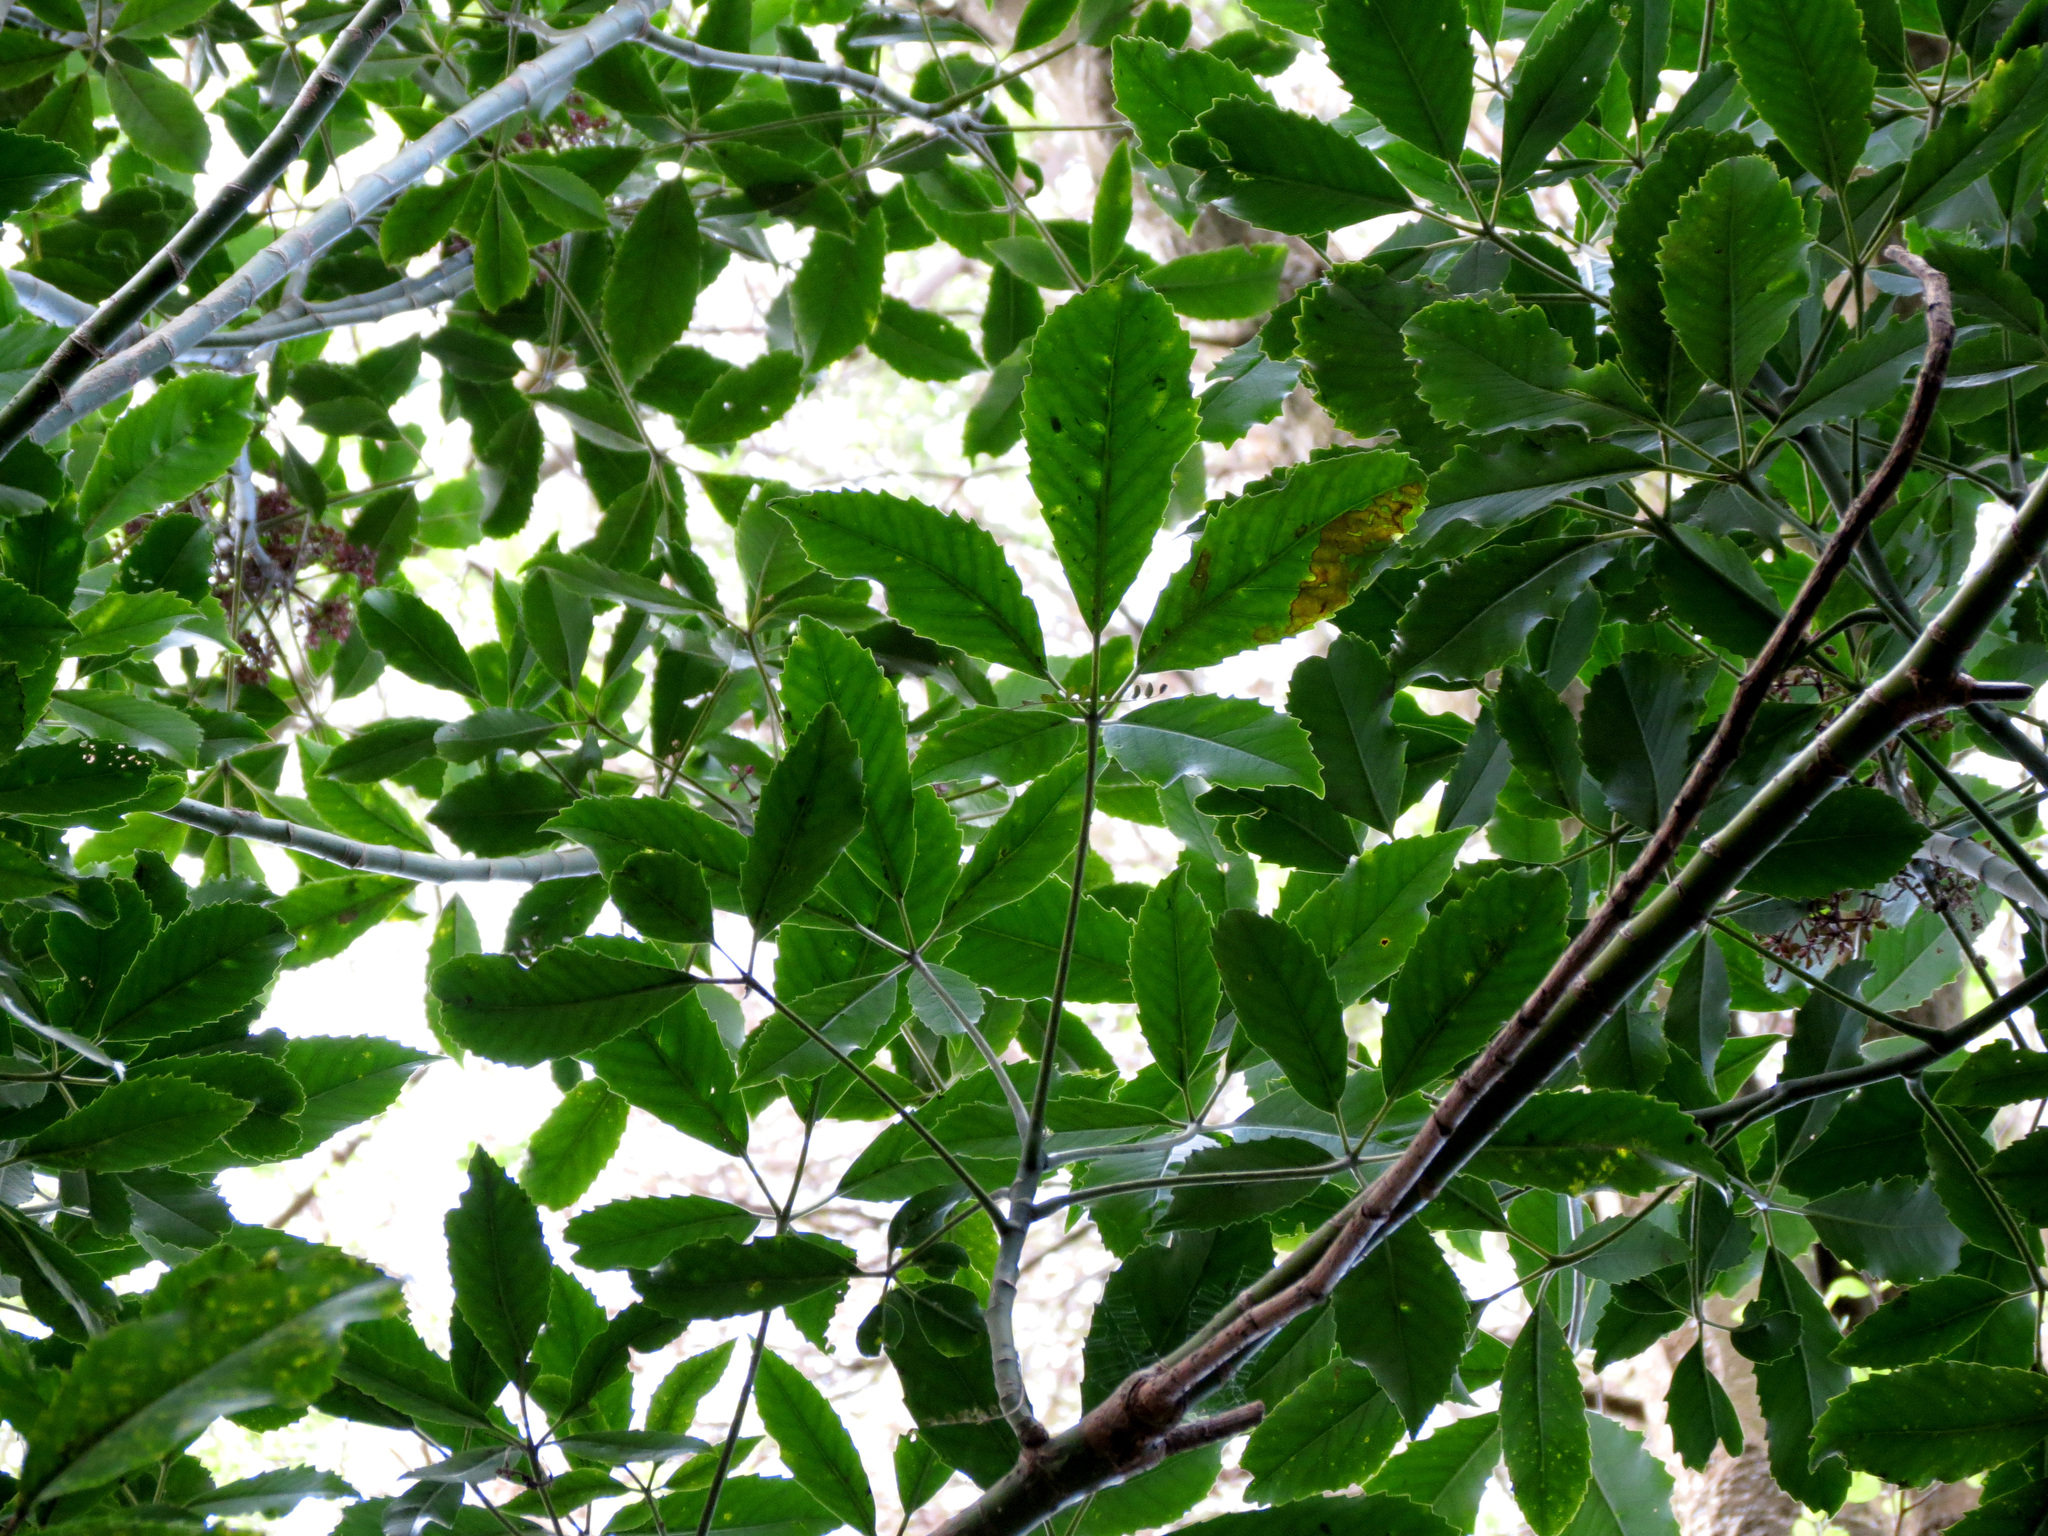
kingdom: Plantae
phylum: Tracheophyta
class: Magnoliopsida
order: Apiales
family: Araliaceae
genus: Neopanax
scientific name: Neopanax arboreus
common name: Five-fingers
